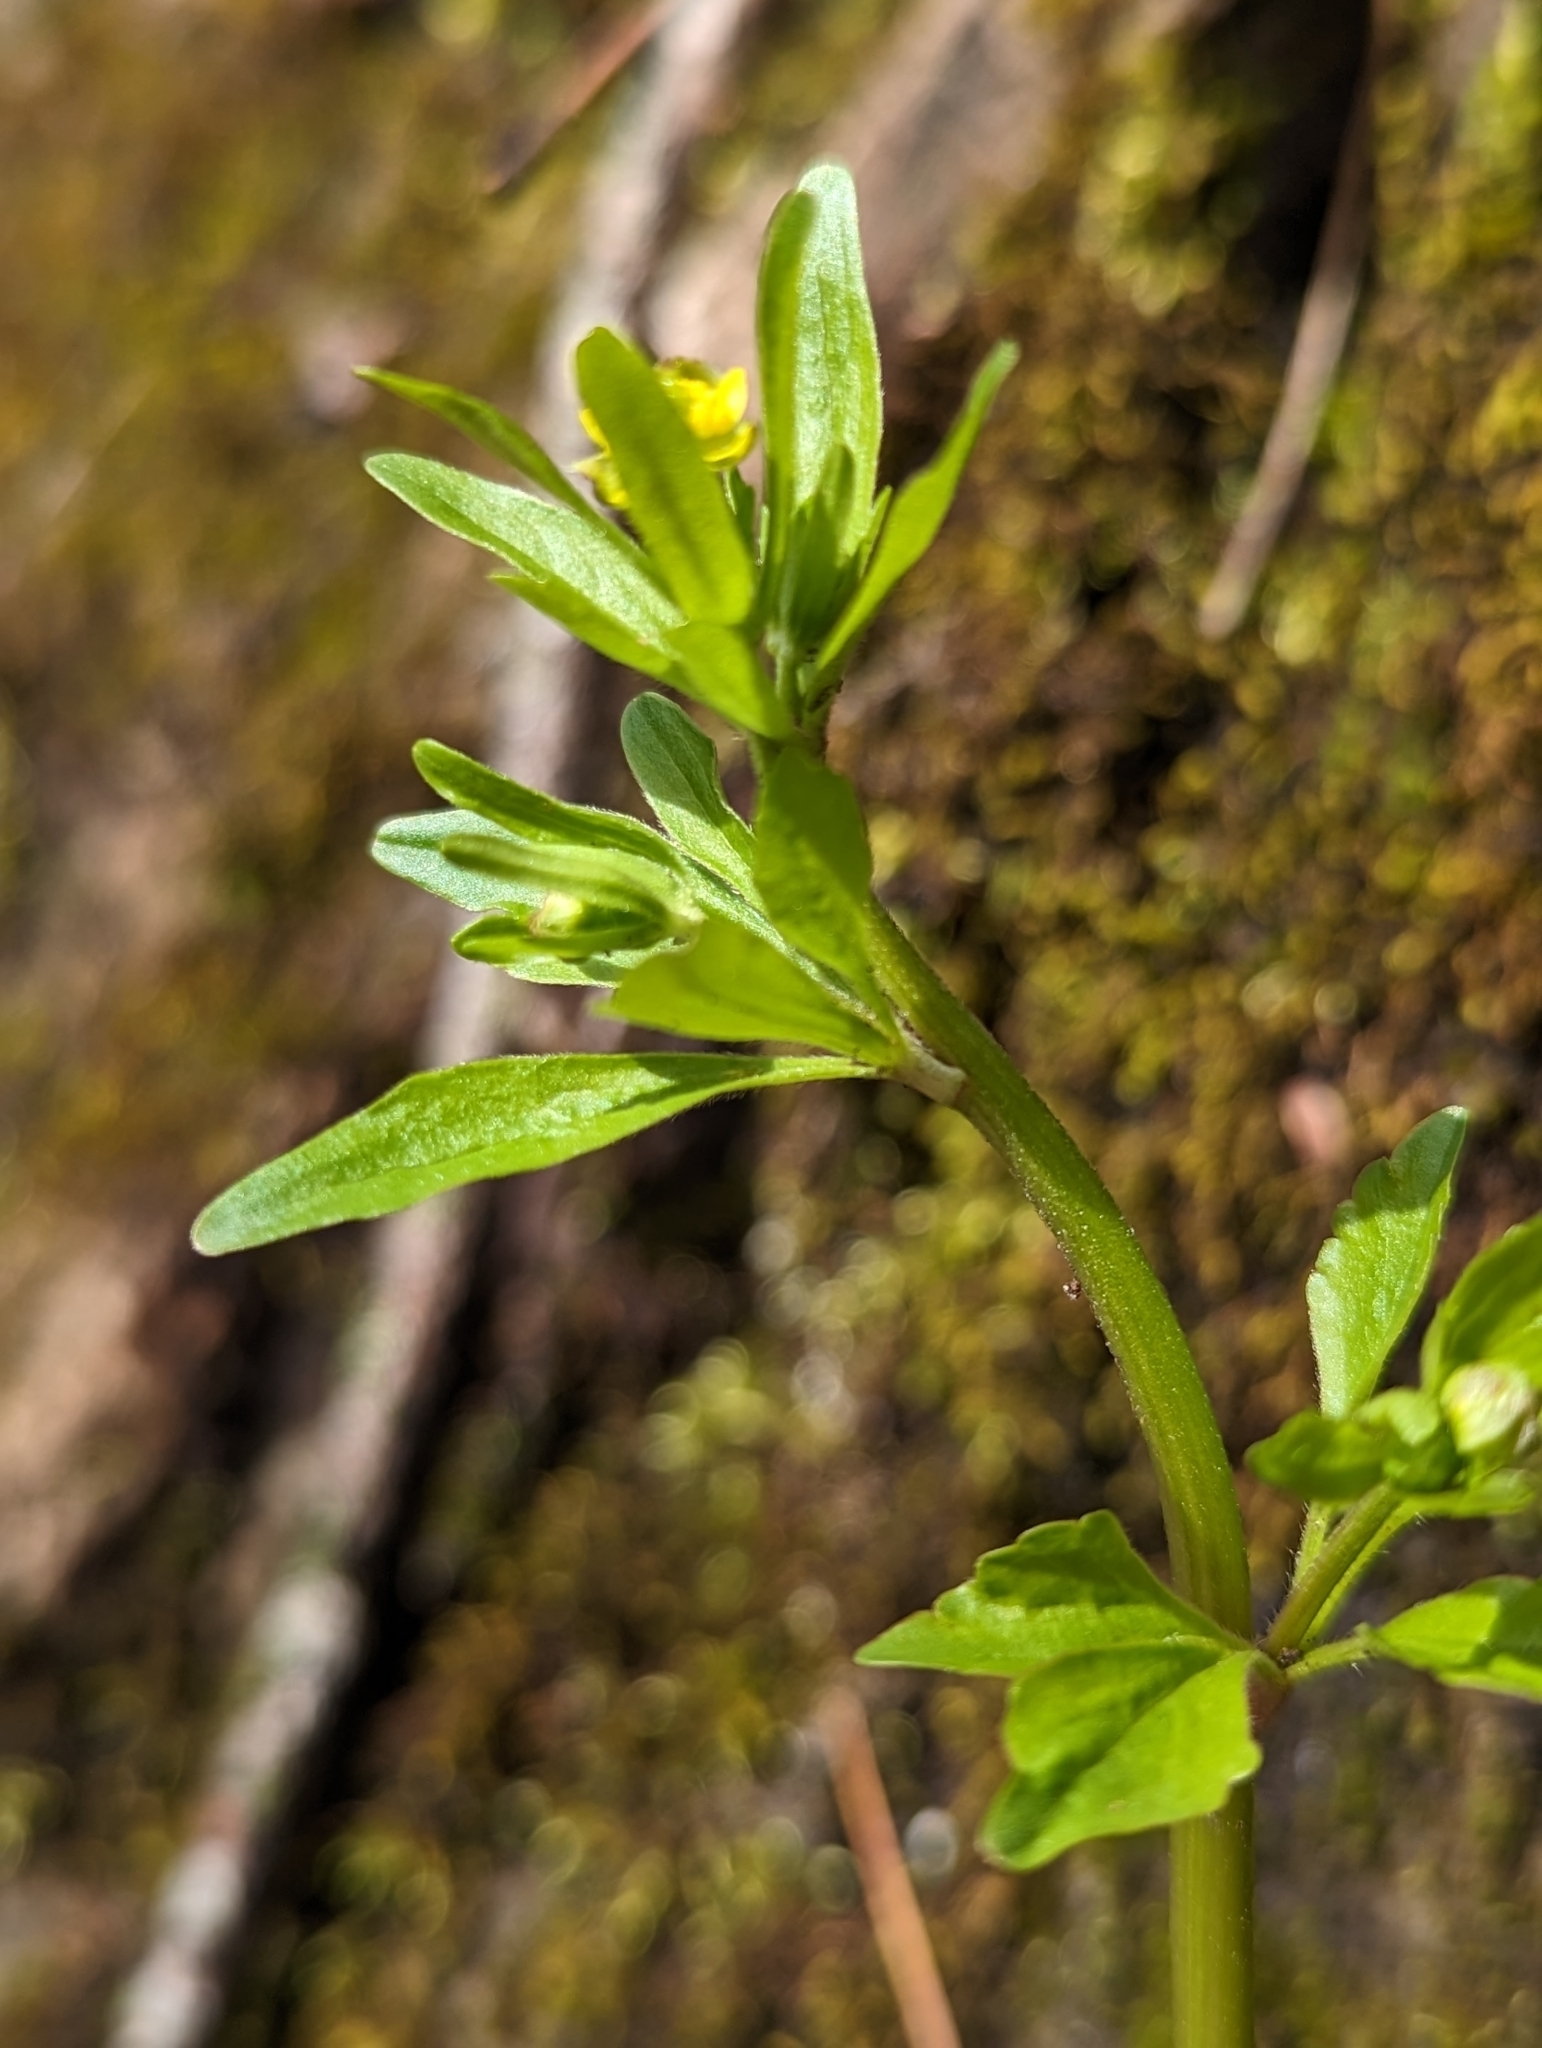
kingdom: Plantae
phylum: Tracheophyta
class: Magnoliopsida
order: Ranunculales
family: Ranunculaceae
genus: Ranunculus
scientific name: Ranunculus abortivus
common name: Early wood buttercup
